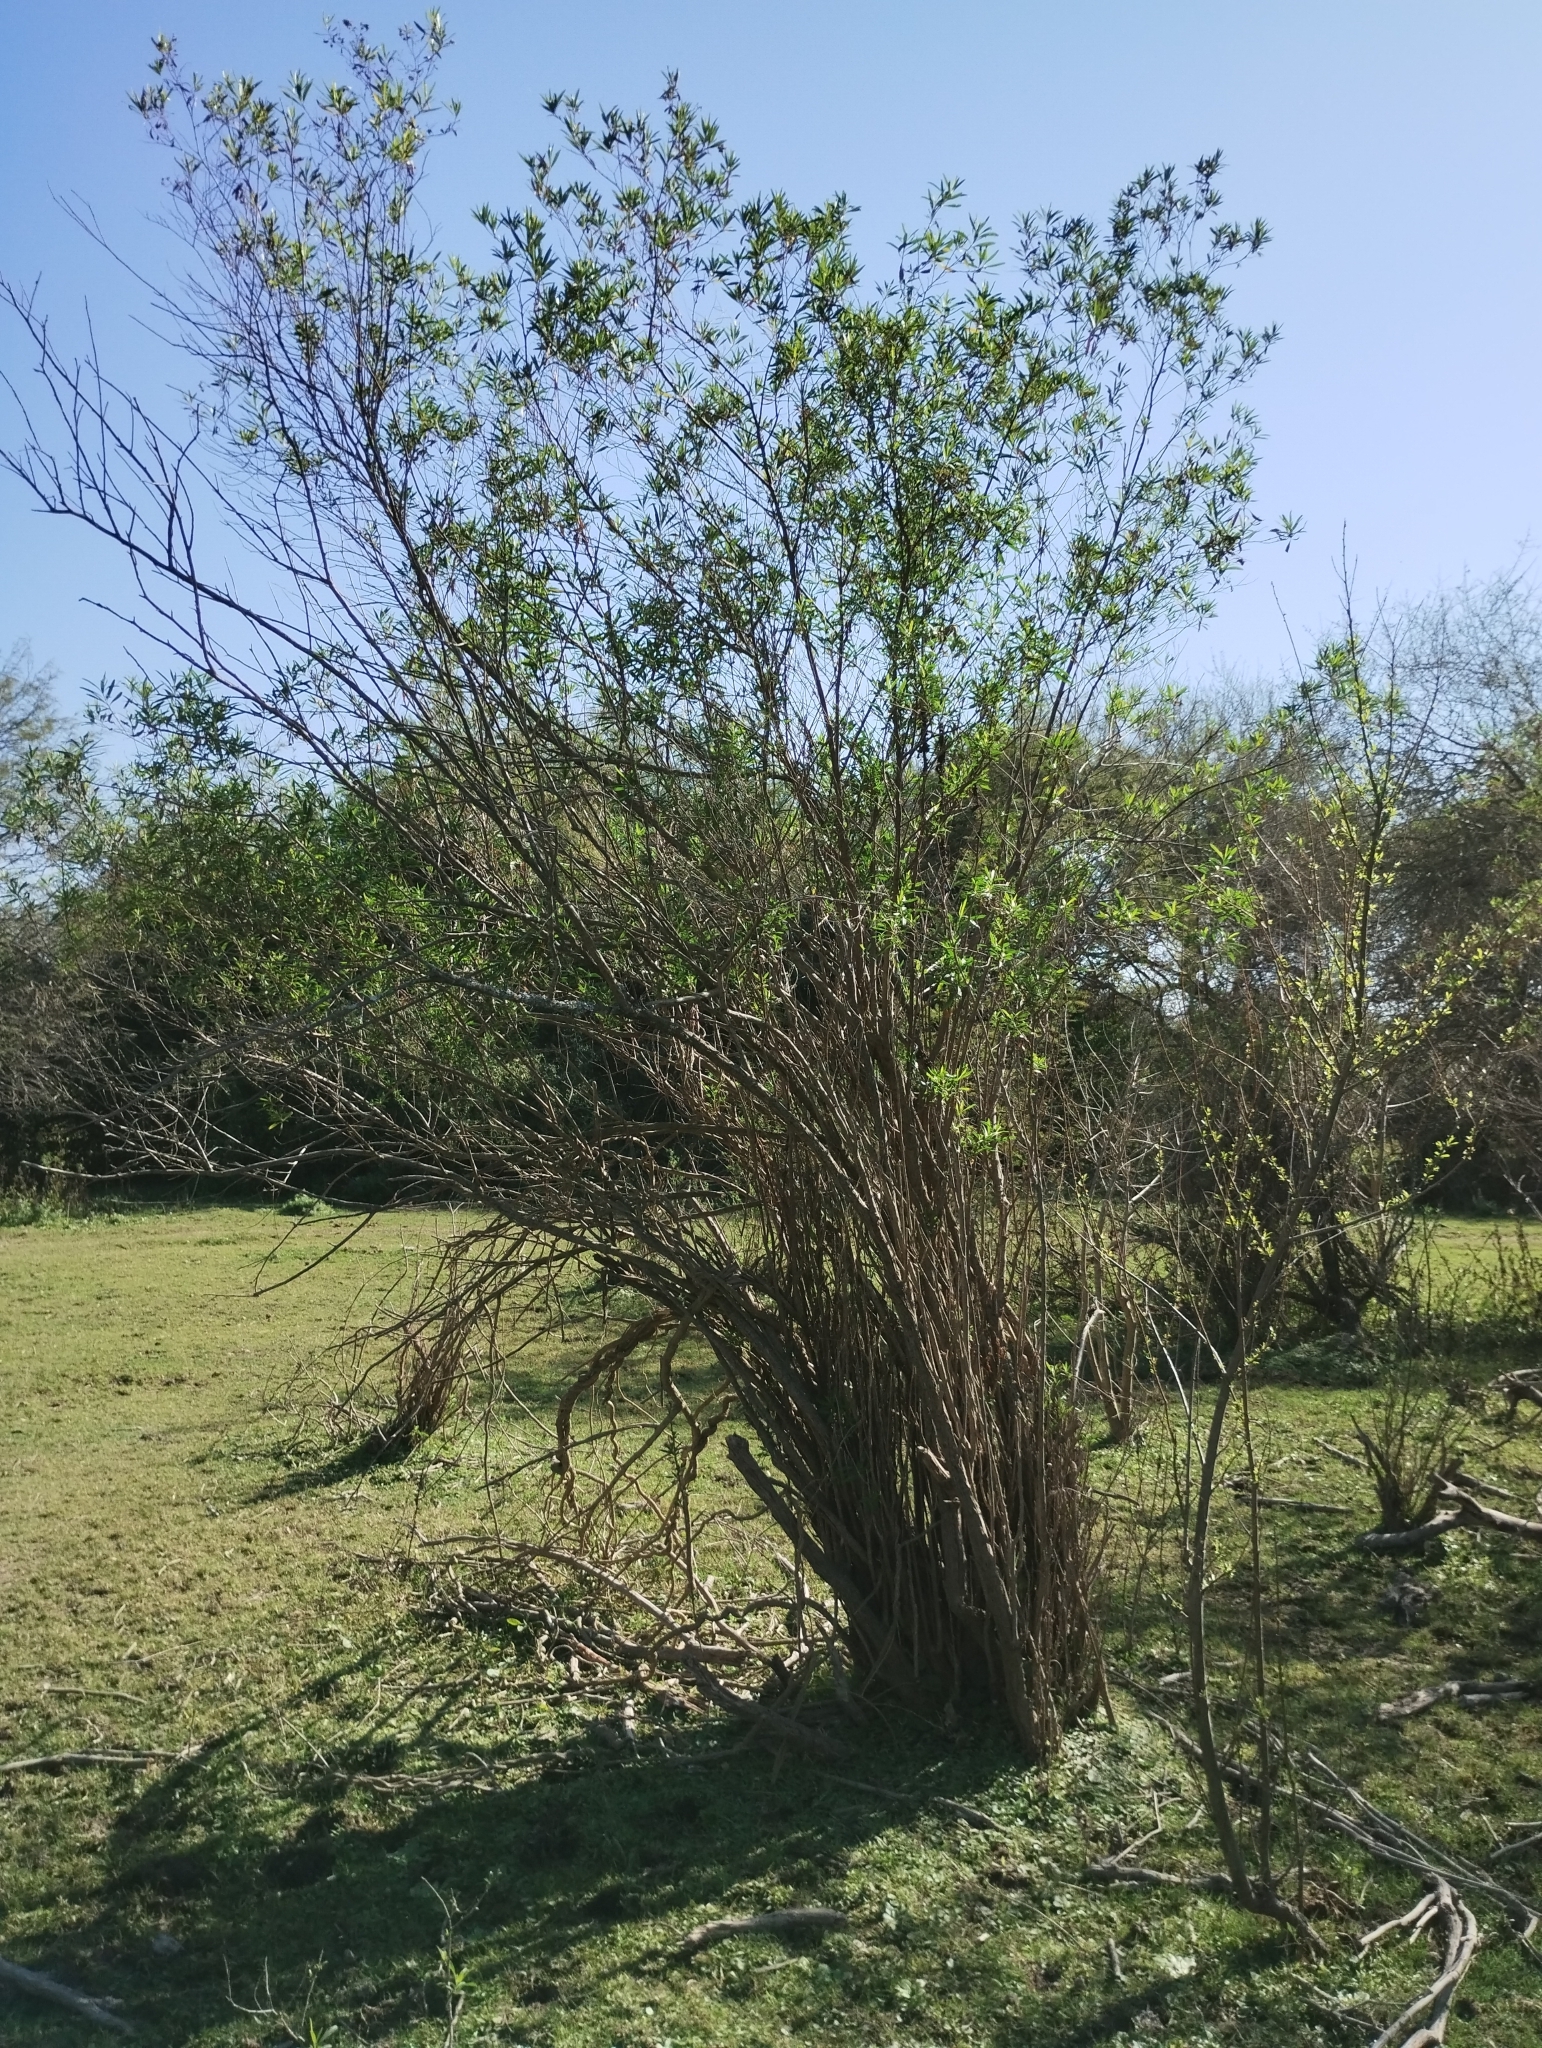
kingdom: Plantae
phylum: Tracheophyta
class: Magnoliopsida
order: Asterales
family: Asteraceae
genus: Baccharis
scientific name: Baccharis salicifolia
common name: Sticky baccharis
